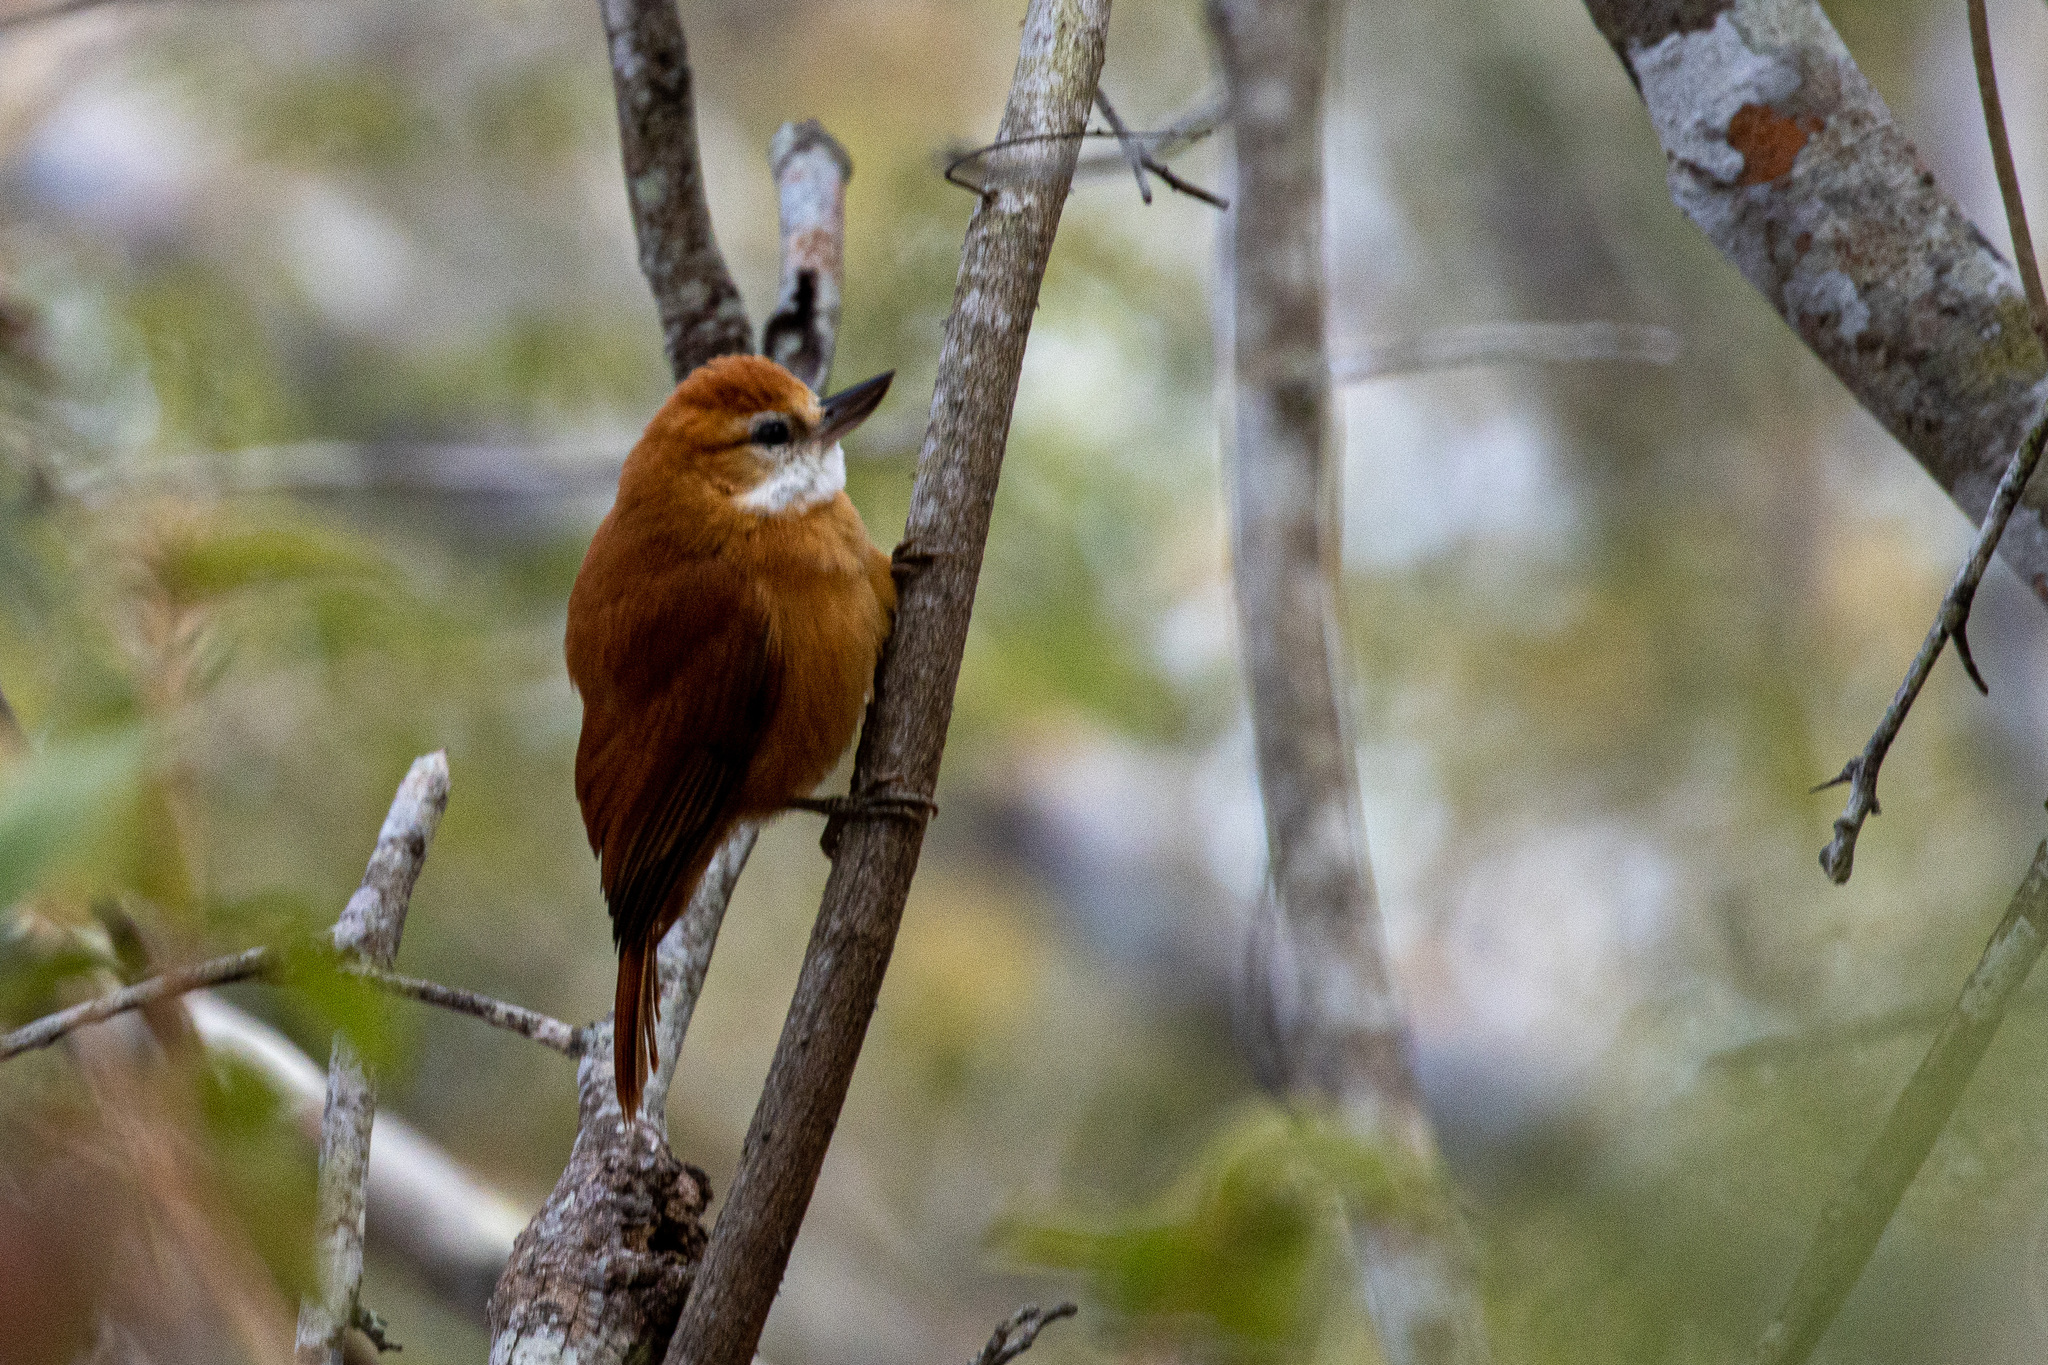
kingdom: Animalia
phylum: Chordata
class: Aves
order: Passeriformes
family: Furnariidae
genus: Megaxenops
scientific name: Megaxenops parnaguae
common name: Great xenops
